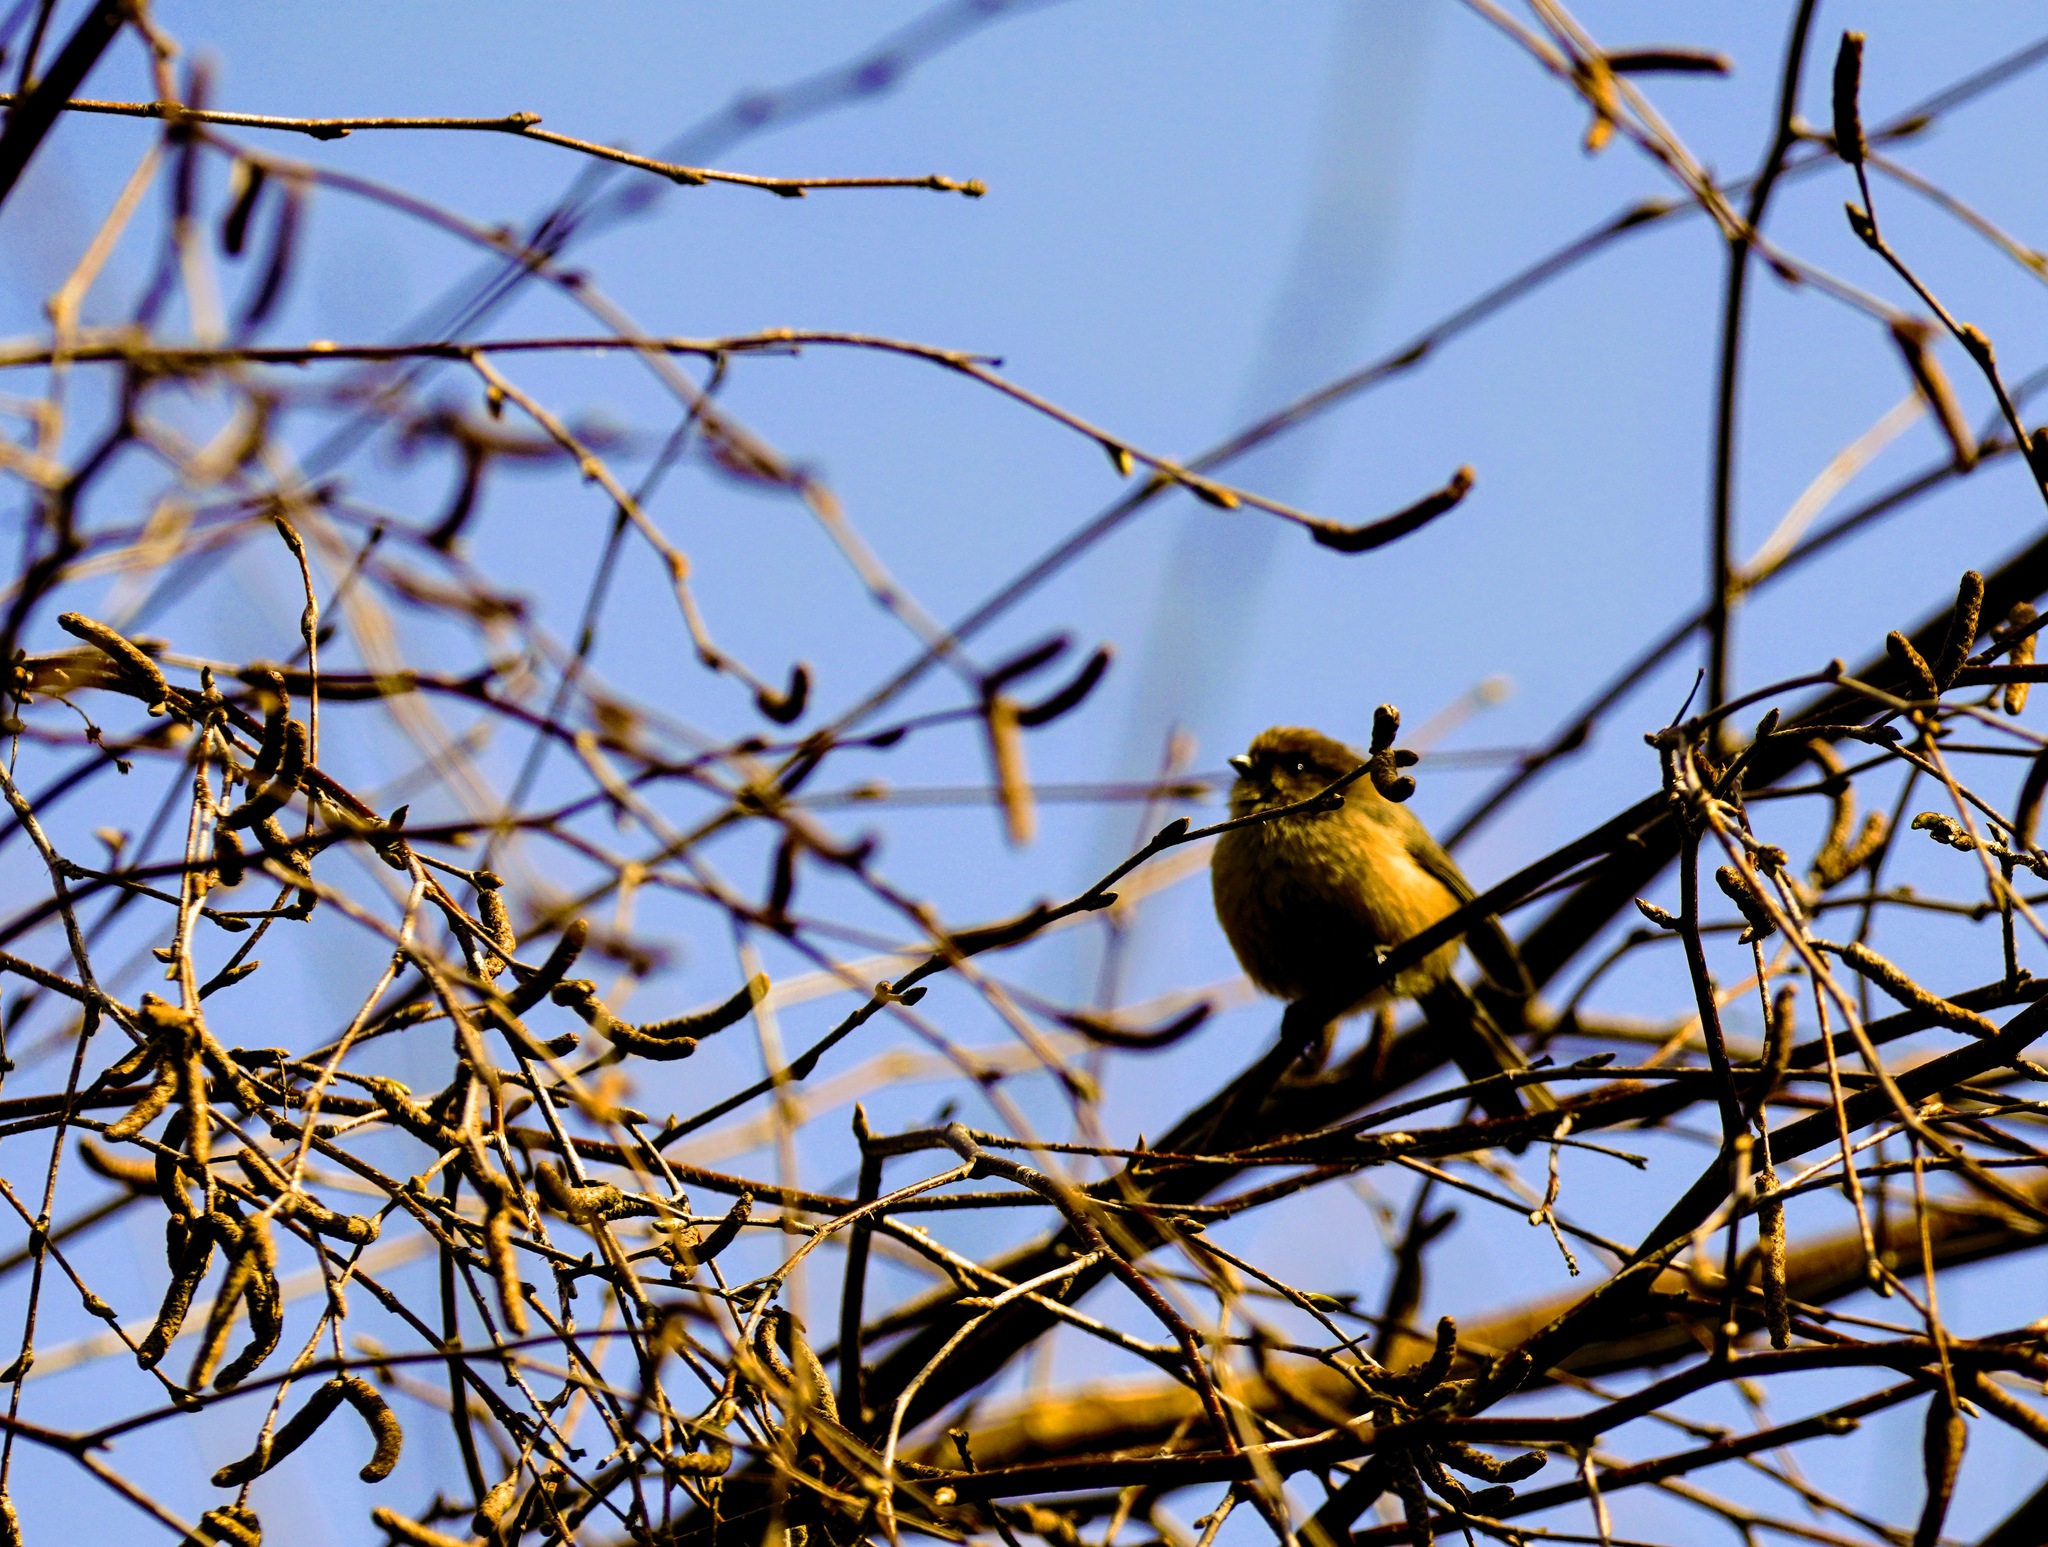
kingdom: Animalia
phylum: Chordata
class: Aves
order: Passeriformes
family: Aegithalidae
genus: Psaltriparus
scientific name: Psaltriparus minimus
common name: American bushtit
